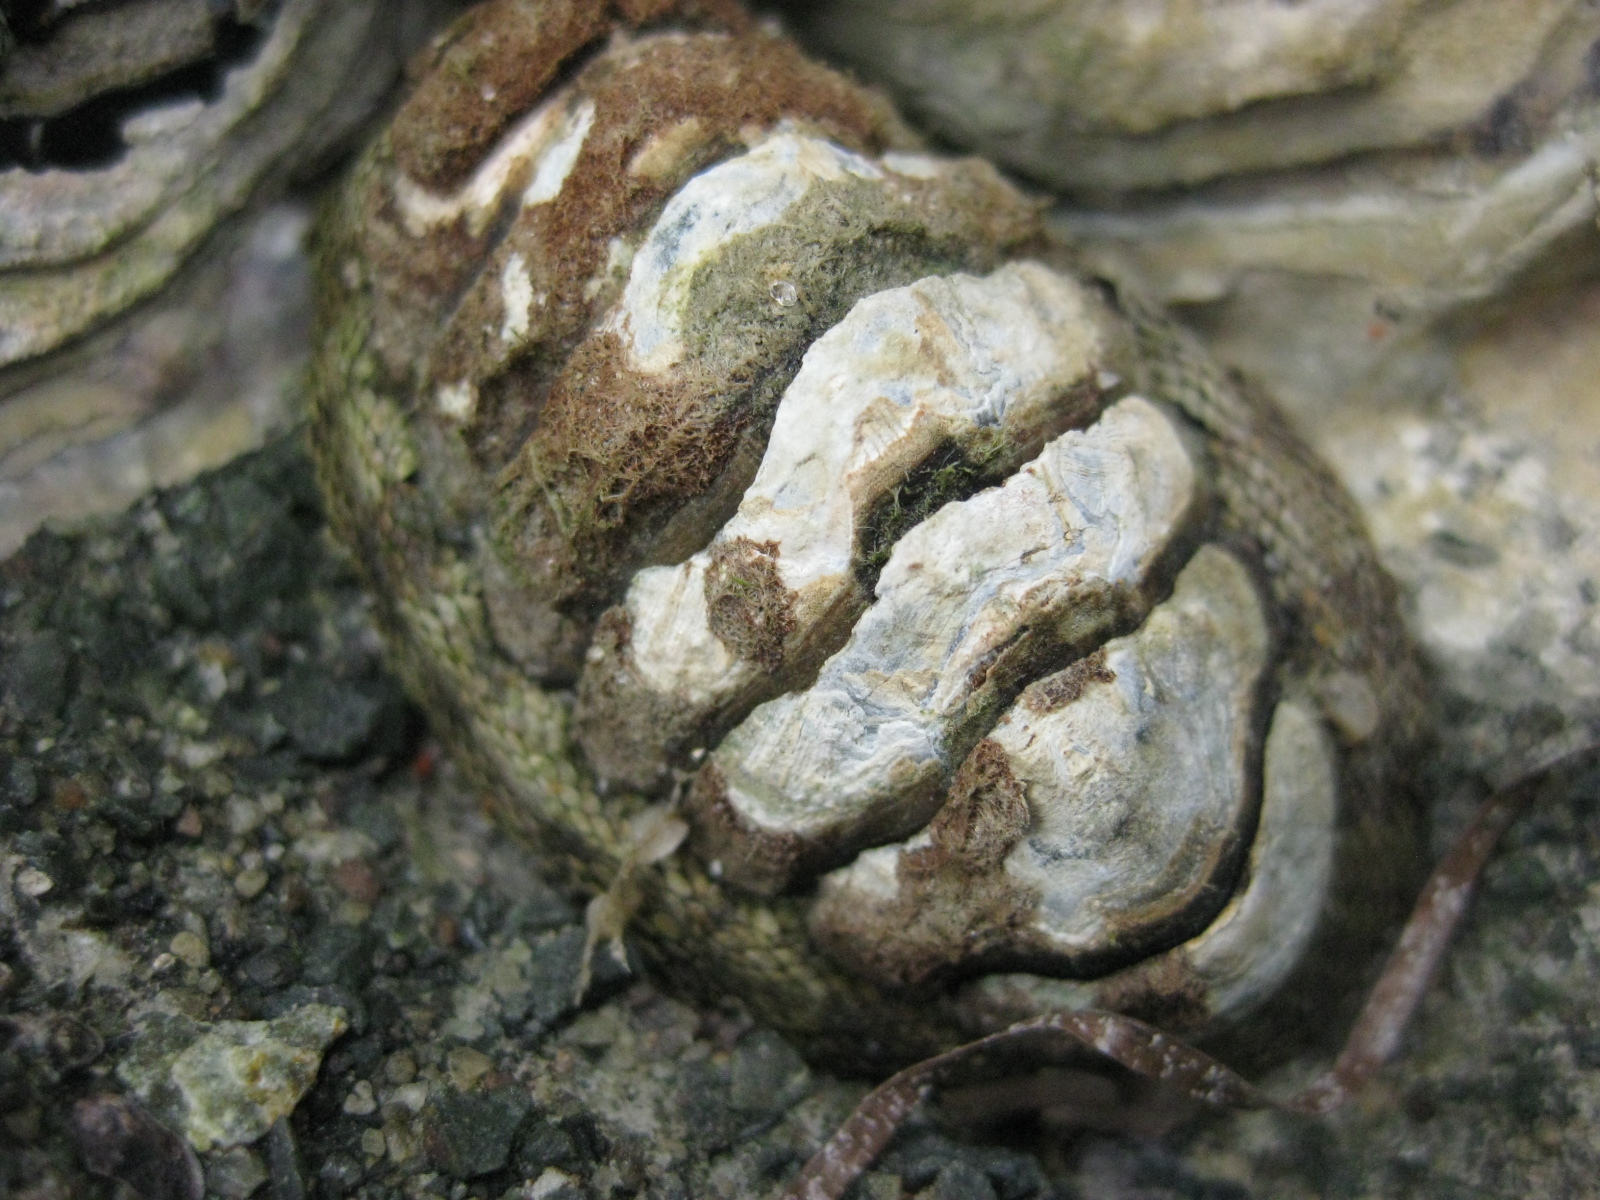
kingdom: Animalia
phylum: Mollusca
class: Polyplacophora
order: Chitonida
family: Chitonidae
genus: Sypharochiton
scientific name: Sypharochiton pelliserpentis
